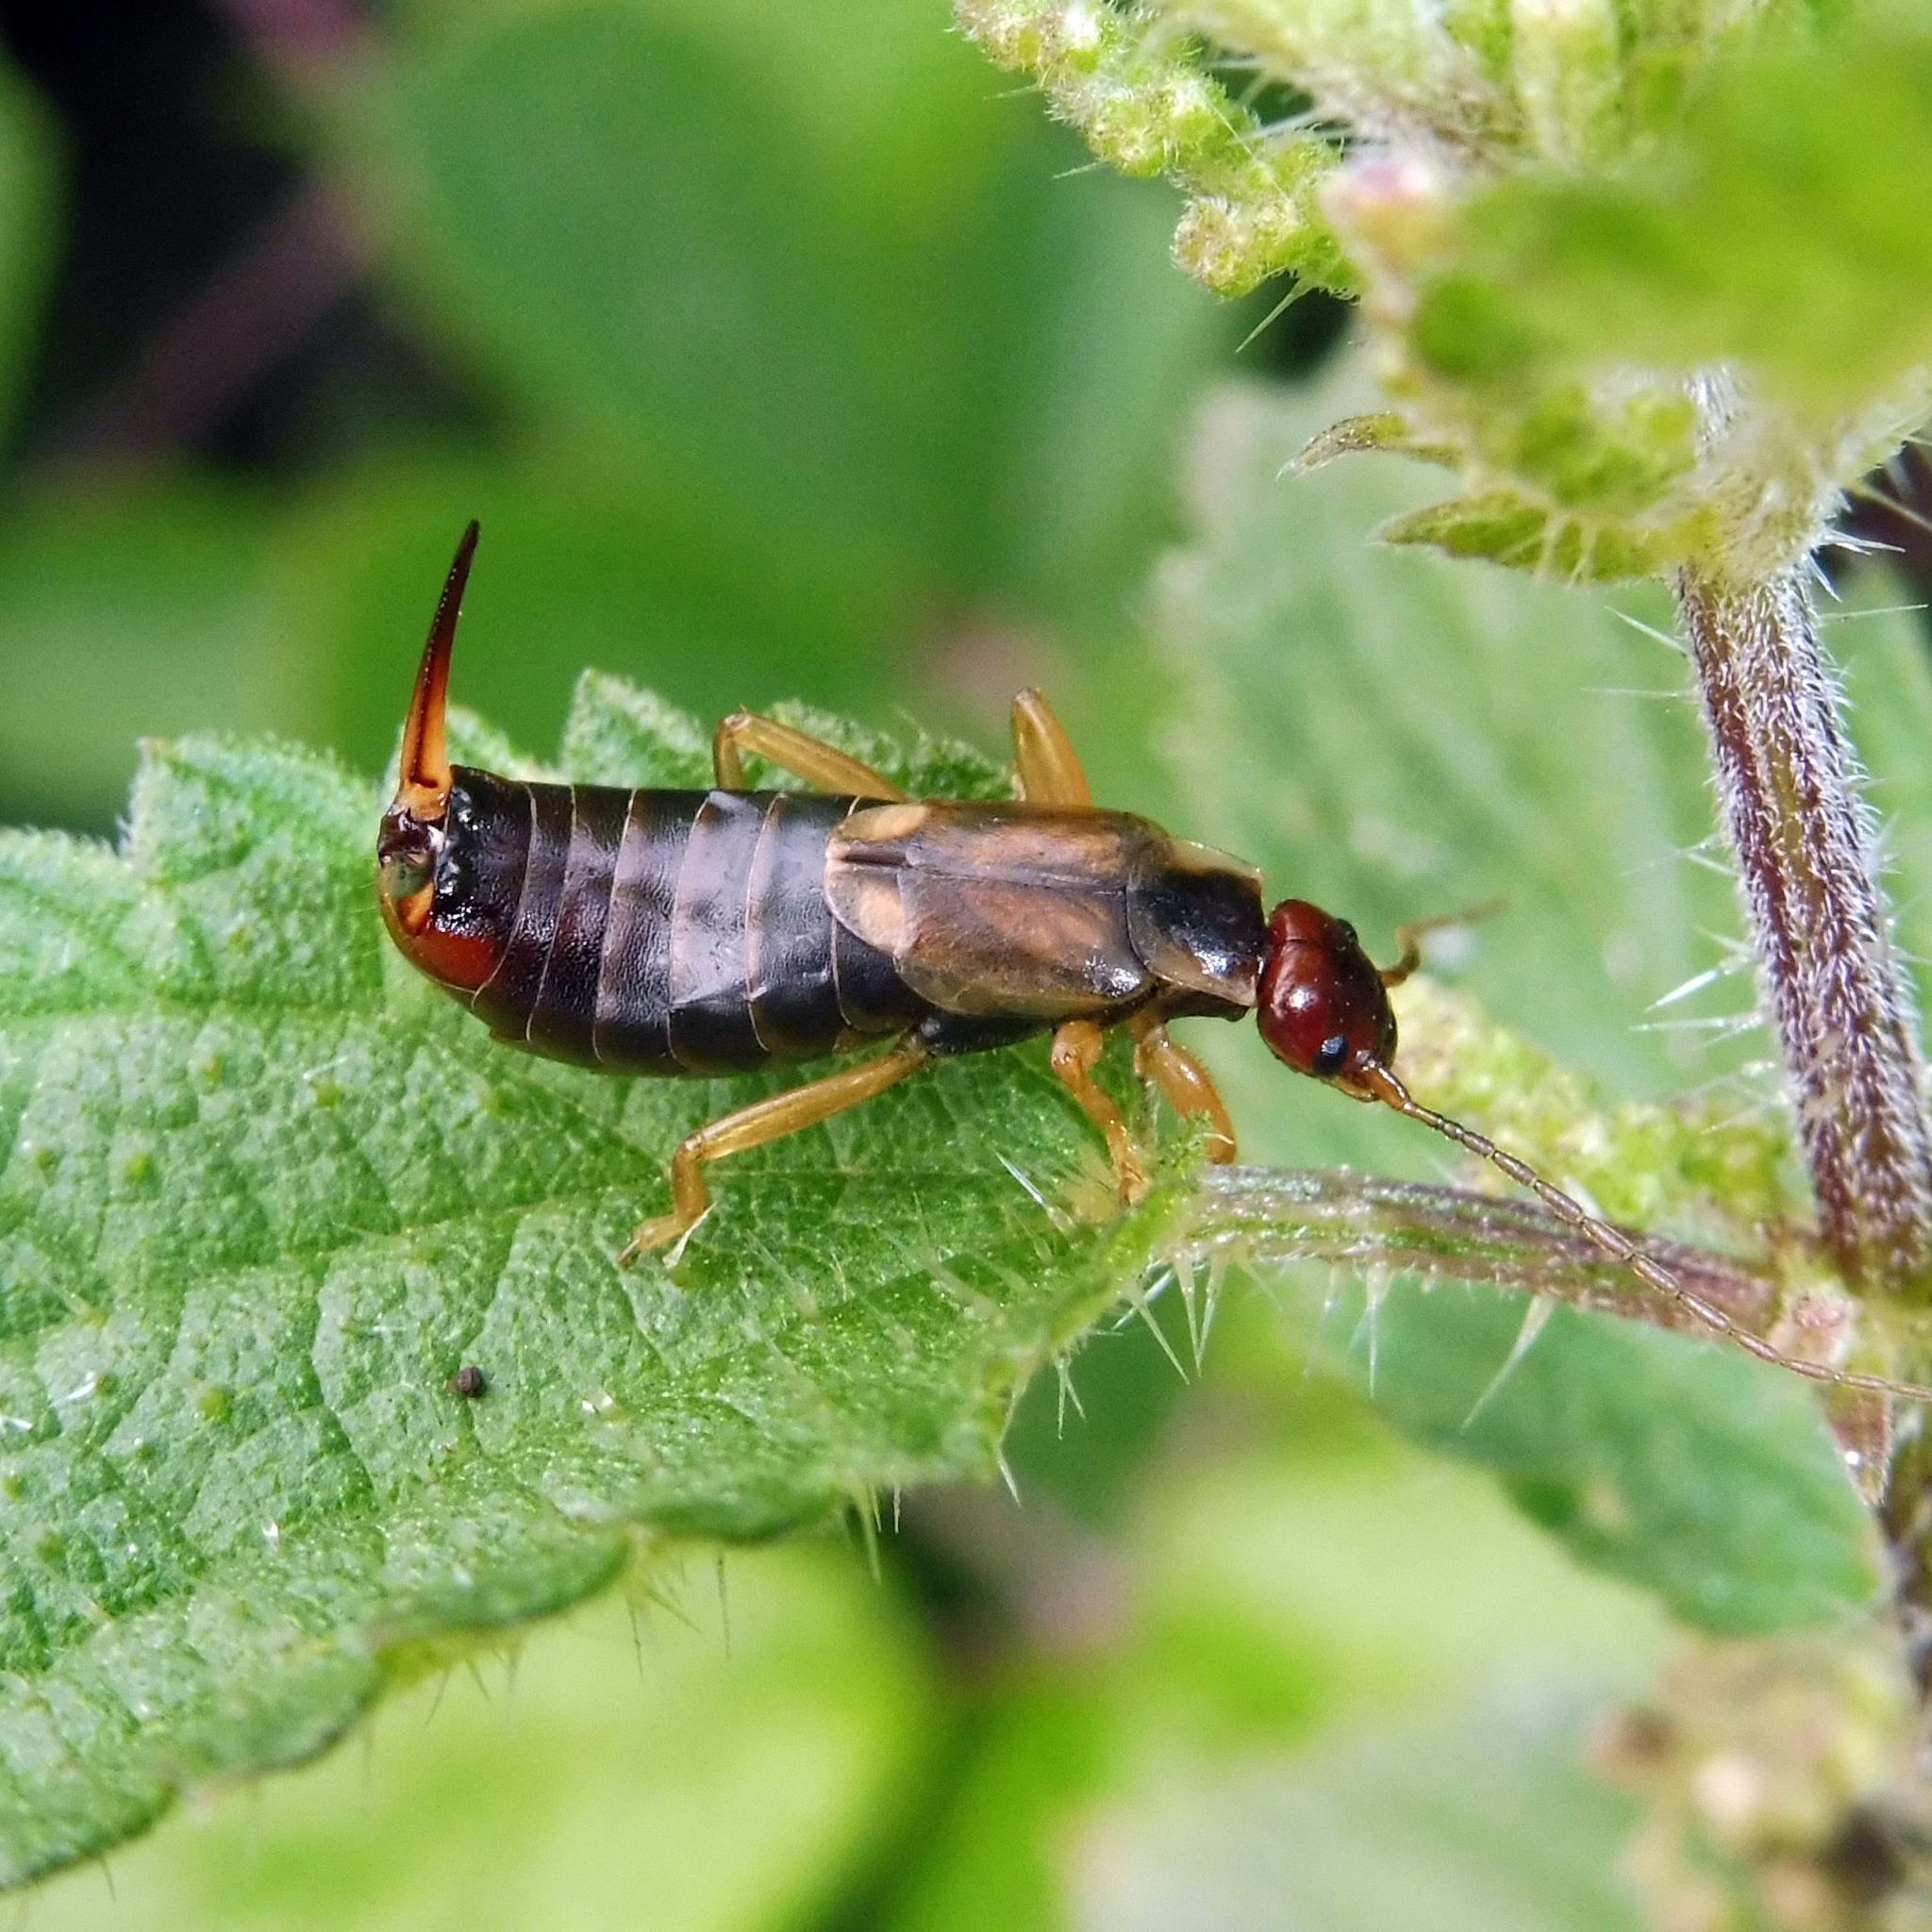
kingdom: Animalia
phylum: Arthropoda
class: Insecta
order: Dermaptera
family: Forficulidae
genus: Forficula
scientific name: Forficula
